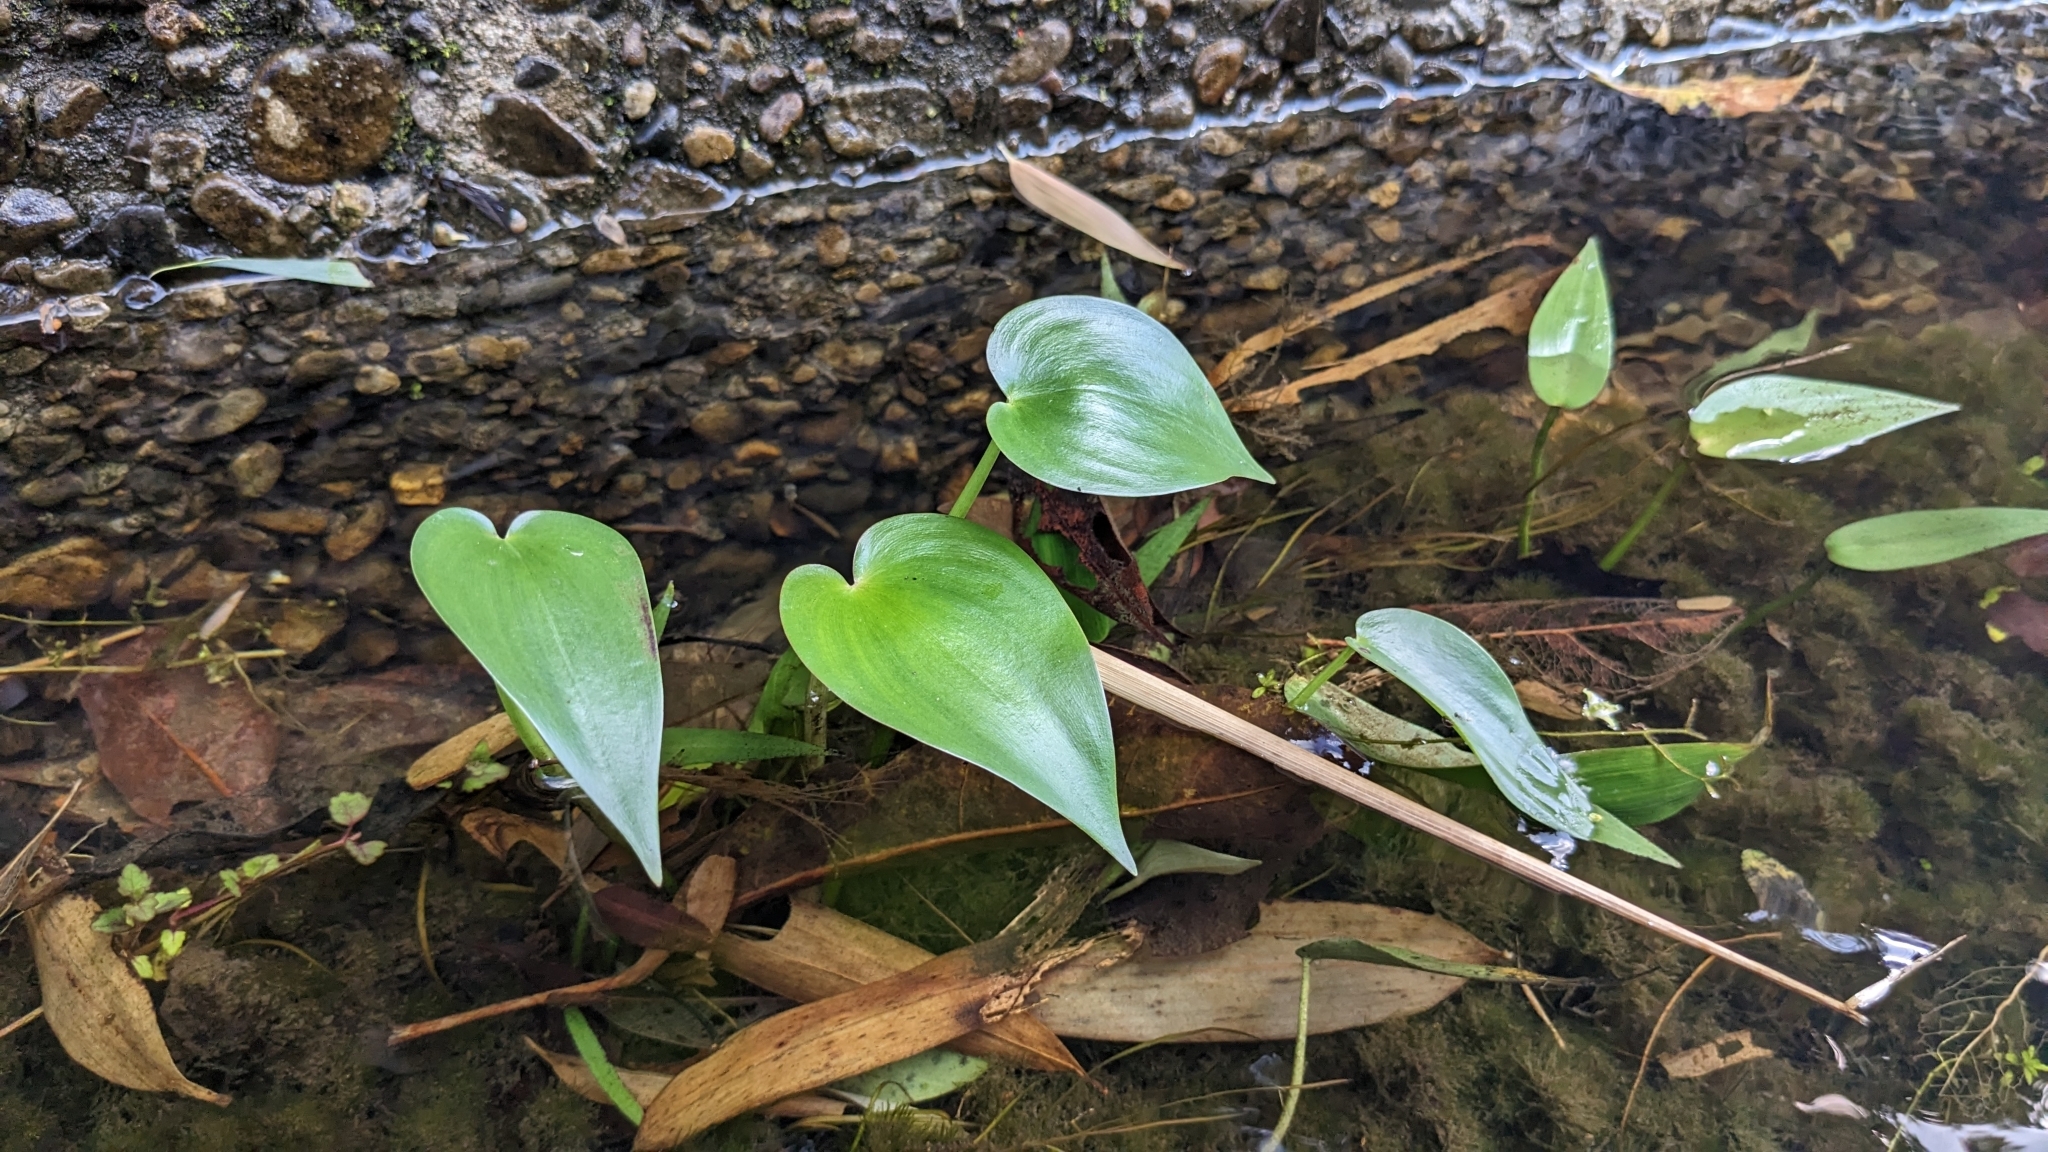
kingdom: Plantae
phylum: Tracheophyta
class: Liliopsida
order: Commelinales
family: Pontederiaceae
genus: Pontederia
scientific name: Pontederia vaginalis
